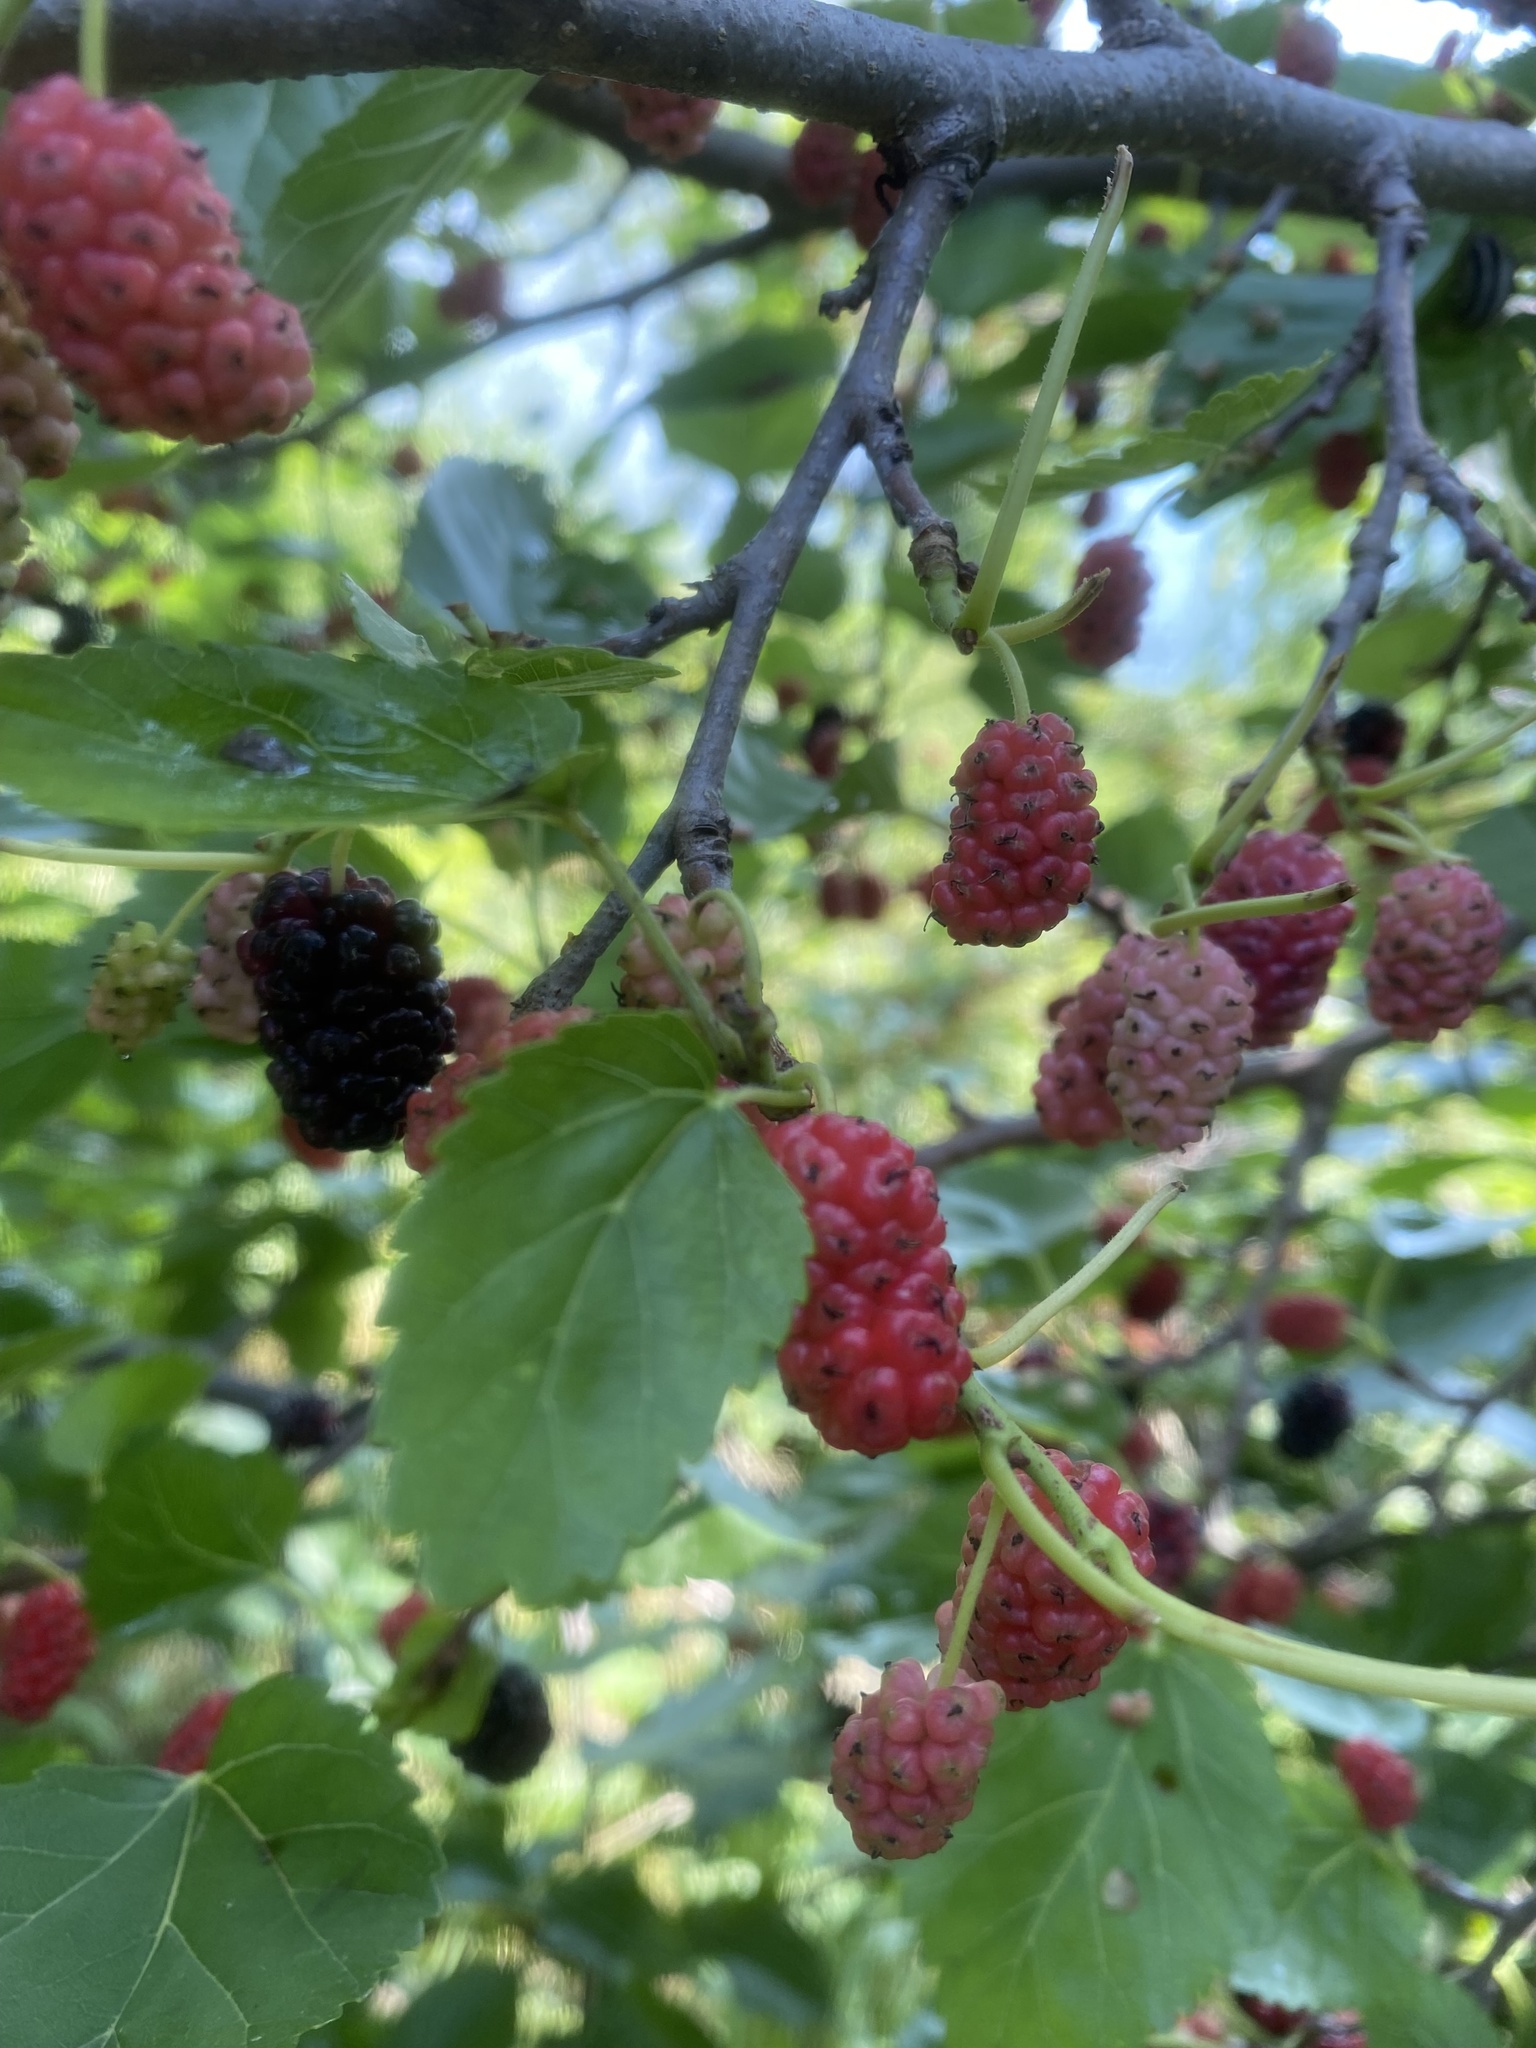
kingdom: Plantae
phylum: Tracheophyta
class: Magnoliopsida
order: Rosales
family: Moraceae
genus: Morus
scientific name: Morus alba
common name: White mulberry
